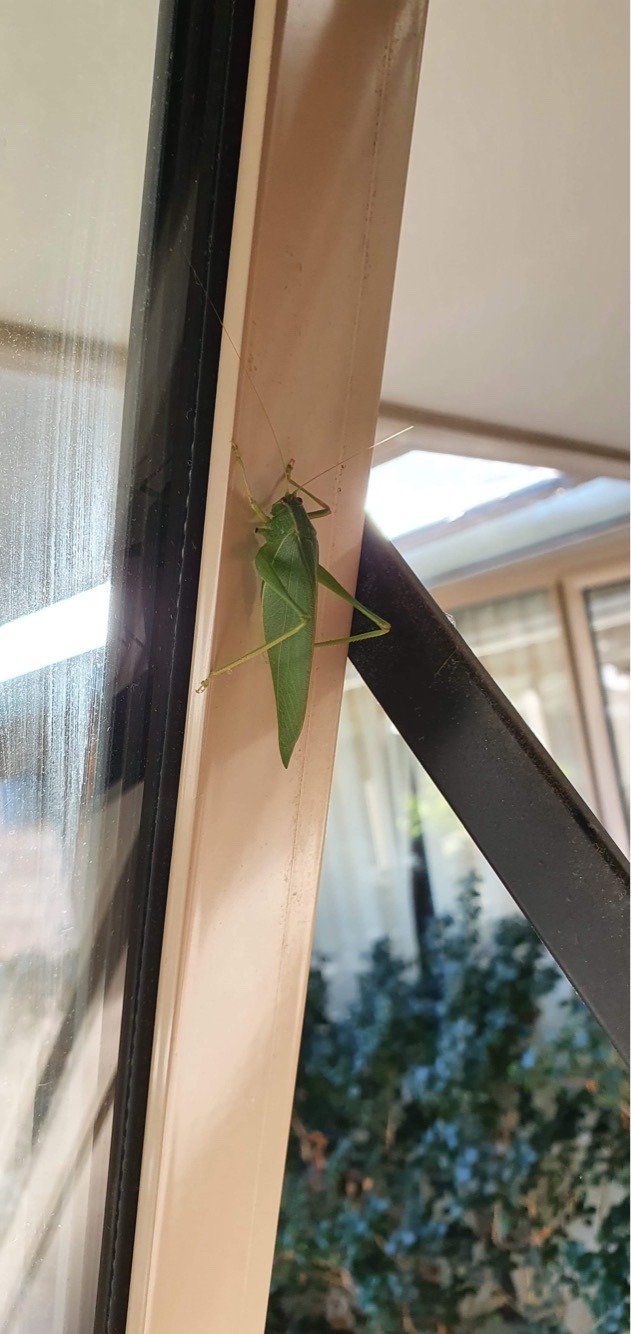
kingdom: Animalia
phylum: Arthropoda
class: Insecta
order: Orthoptera
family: Tettigoniidae
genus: Caedicia
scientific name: Caedicia simplex
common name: Common garden katydid
